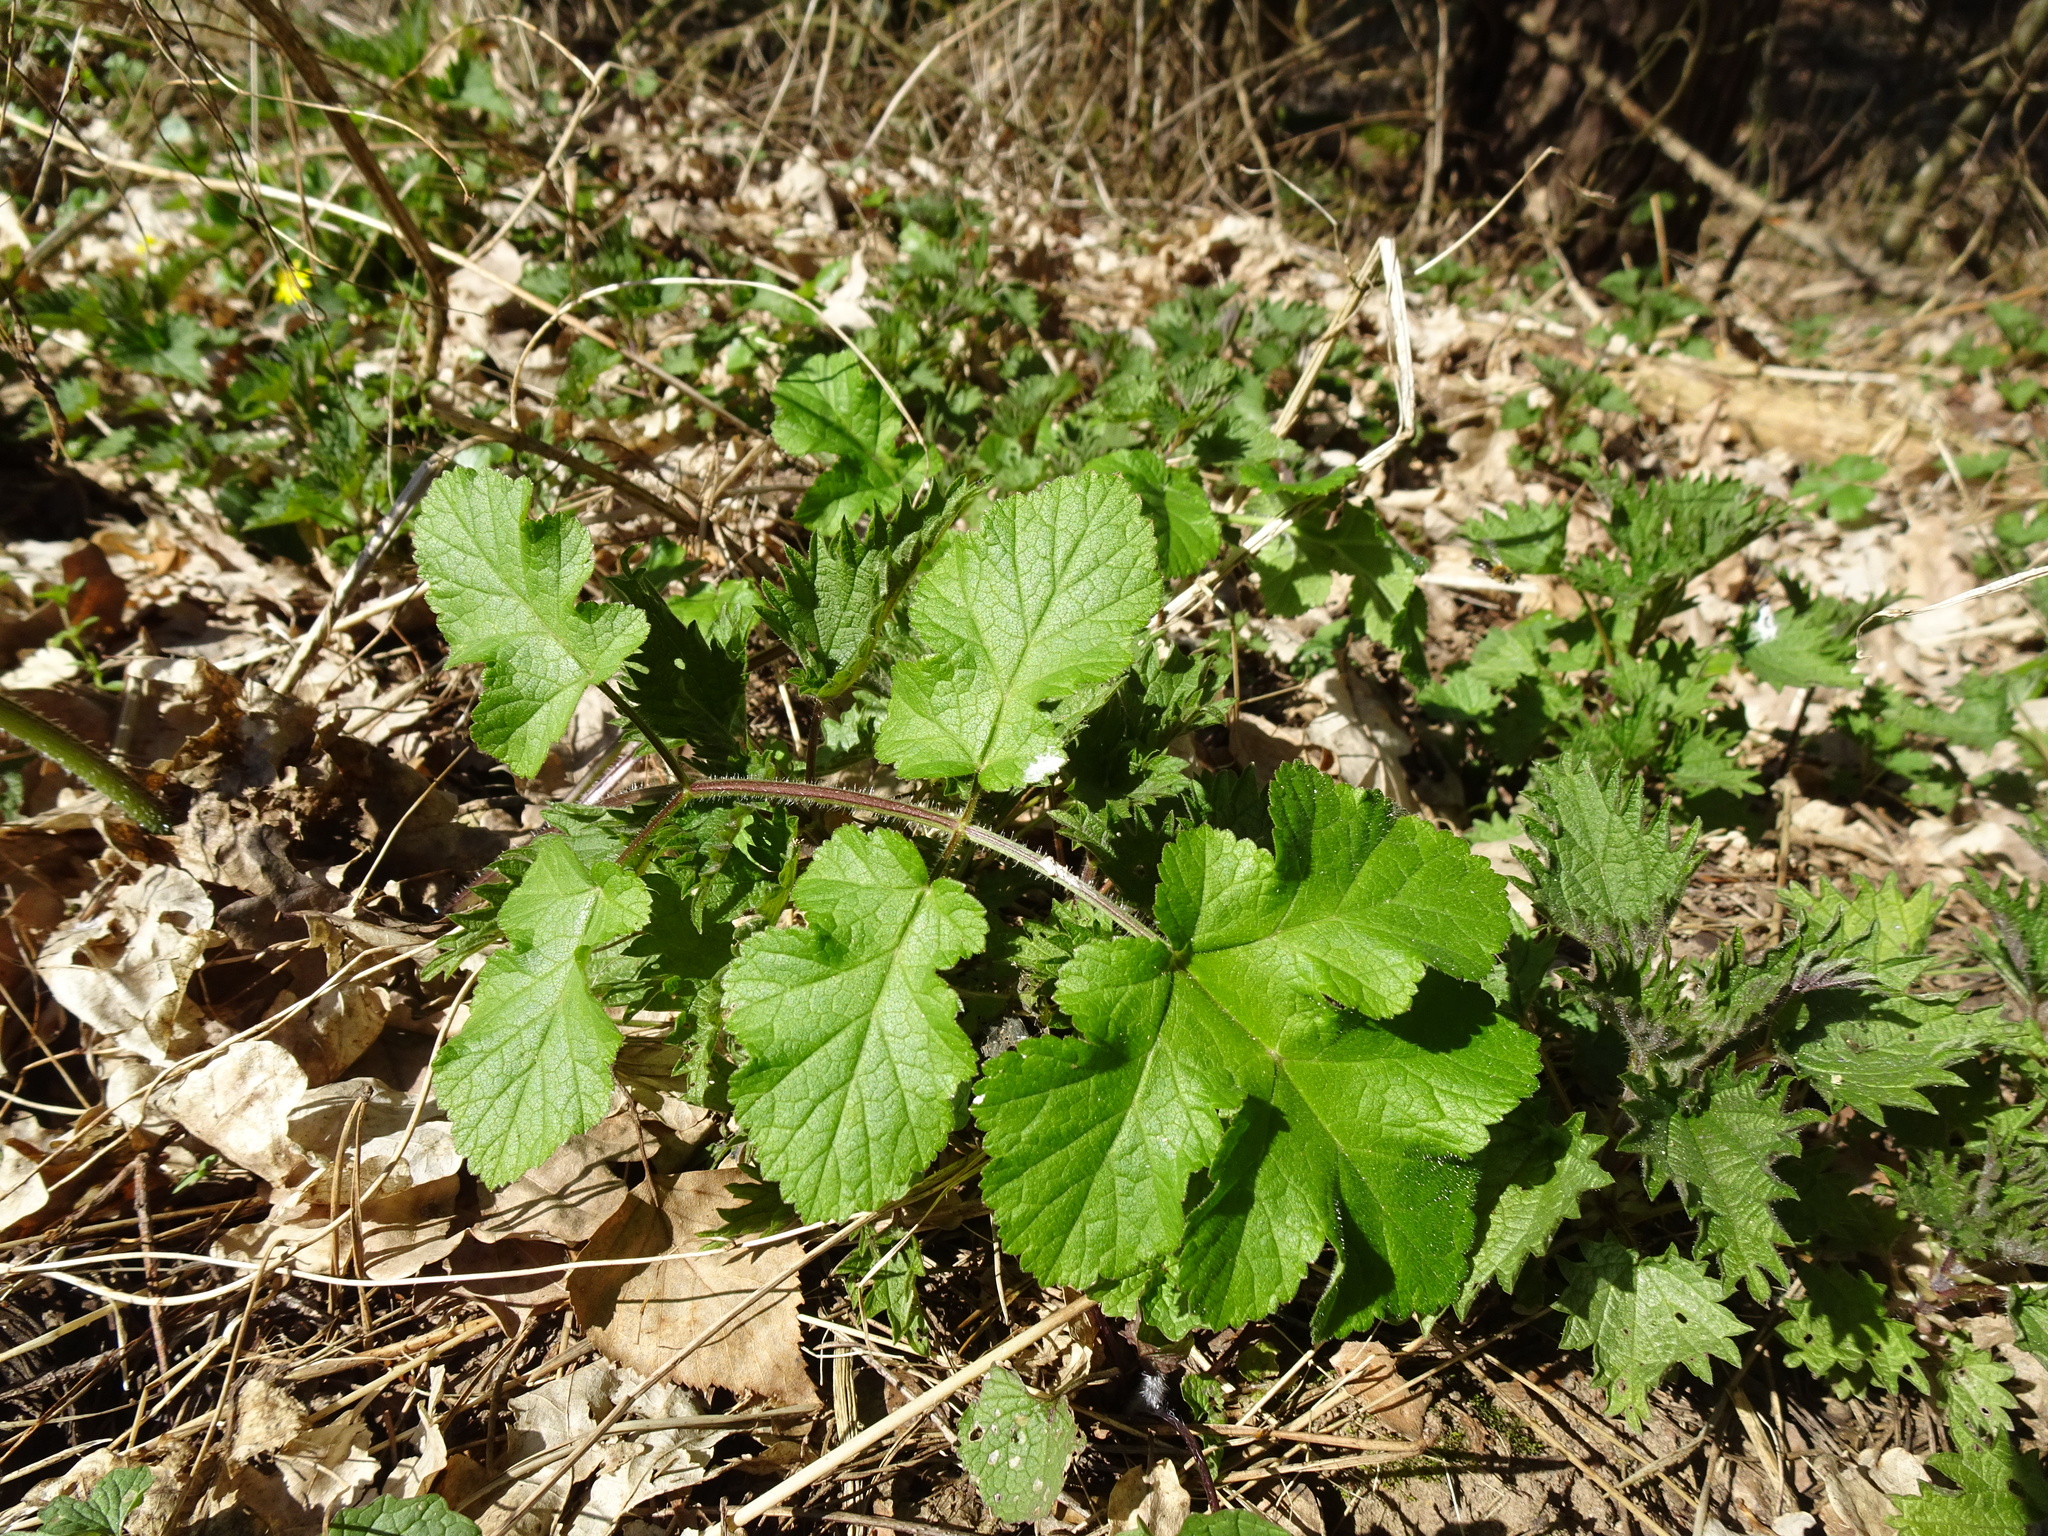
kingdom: Plantae
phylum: Tracheophyta
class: Magnoliopsida
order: Apiales
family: Apiaceae
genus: Heracleum
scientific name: Heracleum sphondylium
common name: Hogweed
